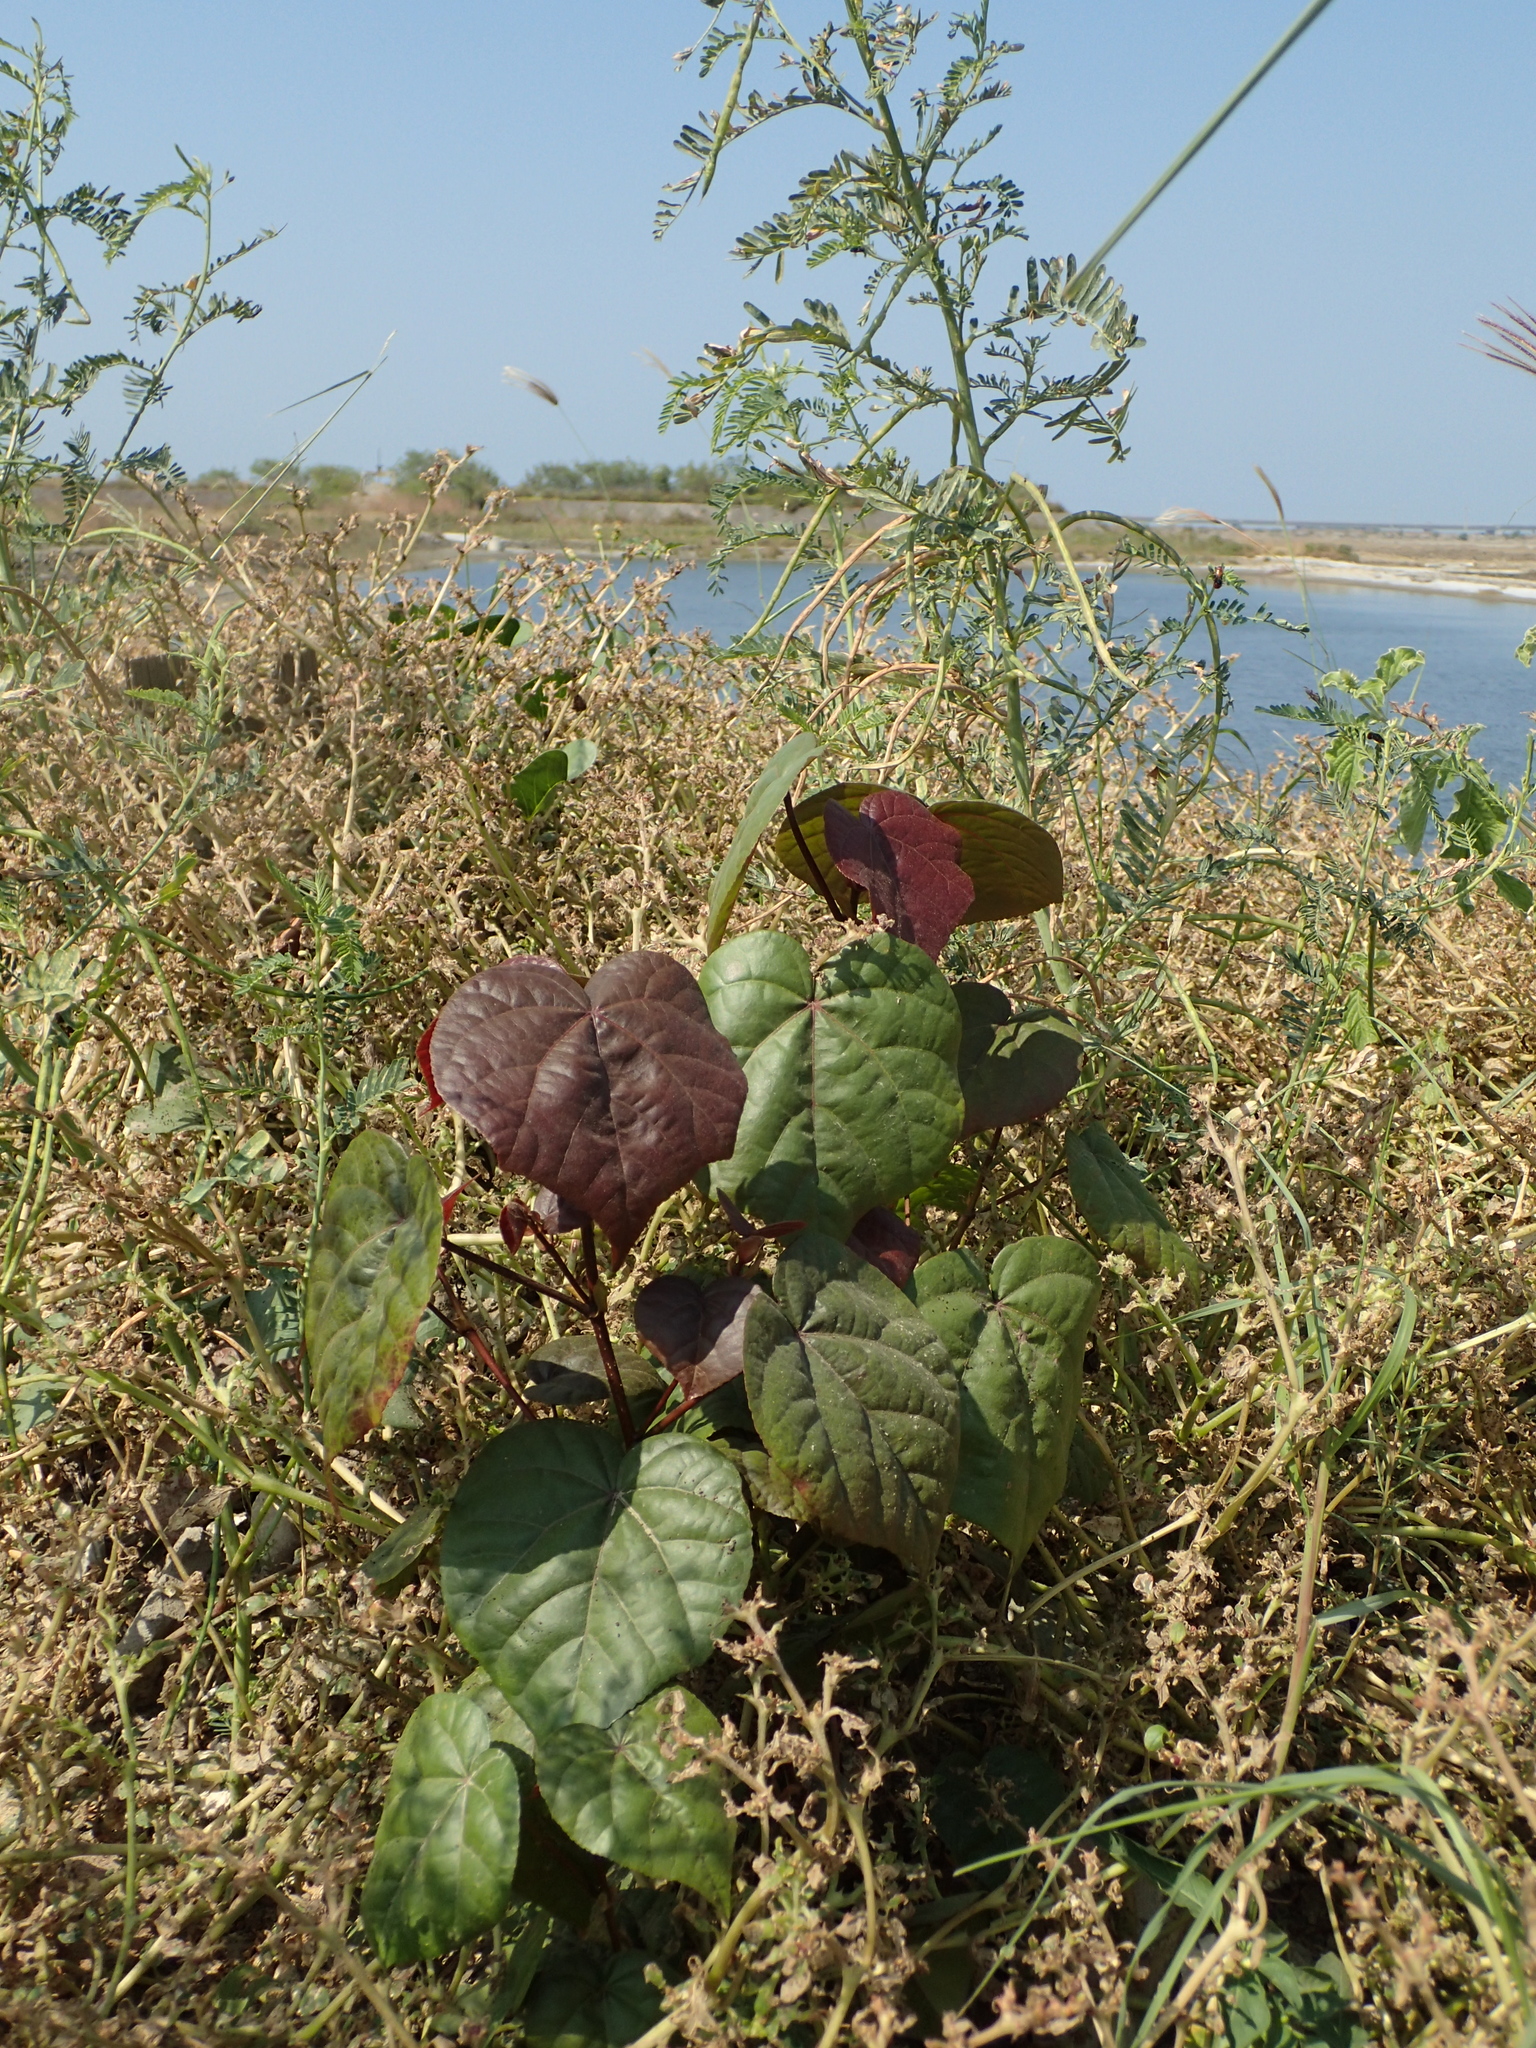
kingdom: Plantae
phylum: Tracheophyta
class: Magnoliopsida
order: Malvales
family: Malvaceae
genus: Talipariti
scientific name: Talipariti tiliaceum
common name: Sea hibiscus
